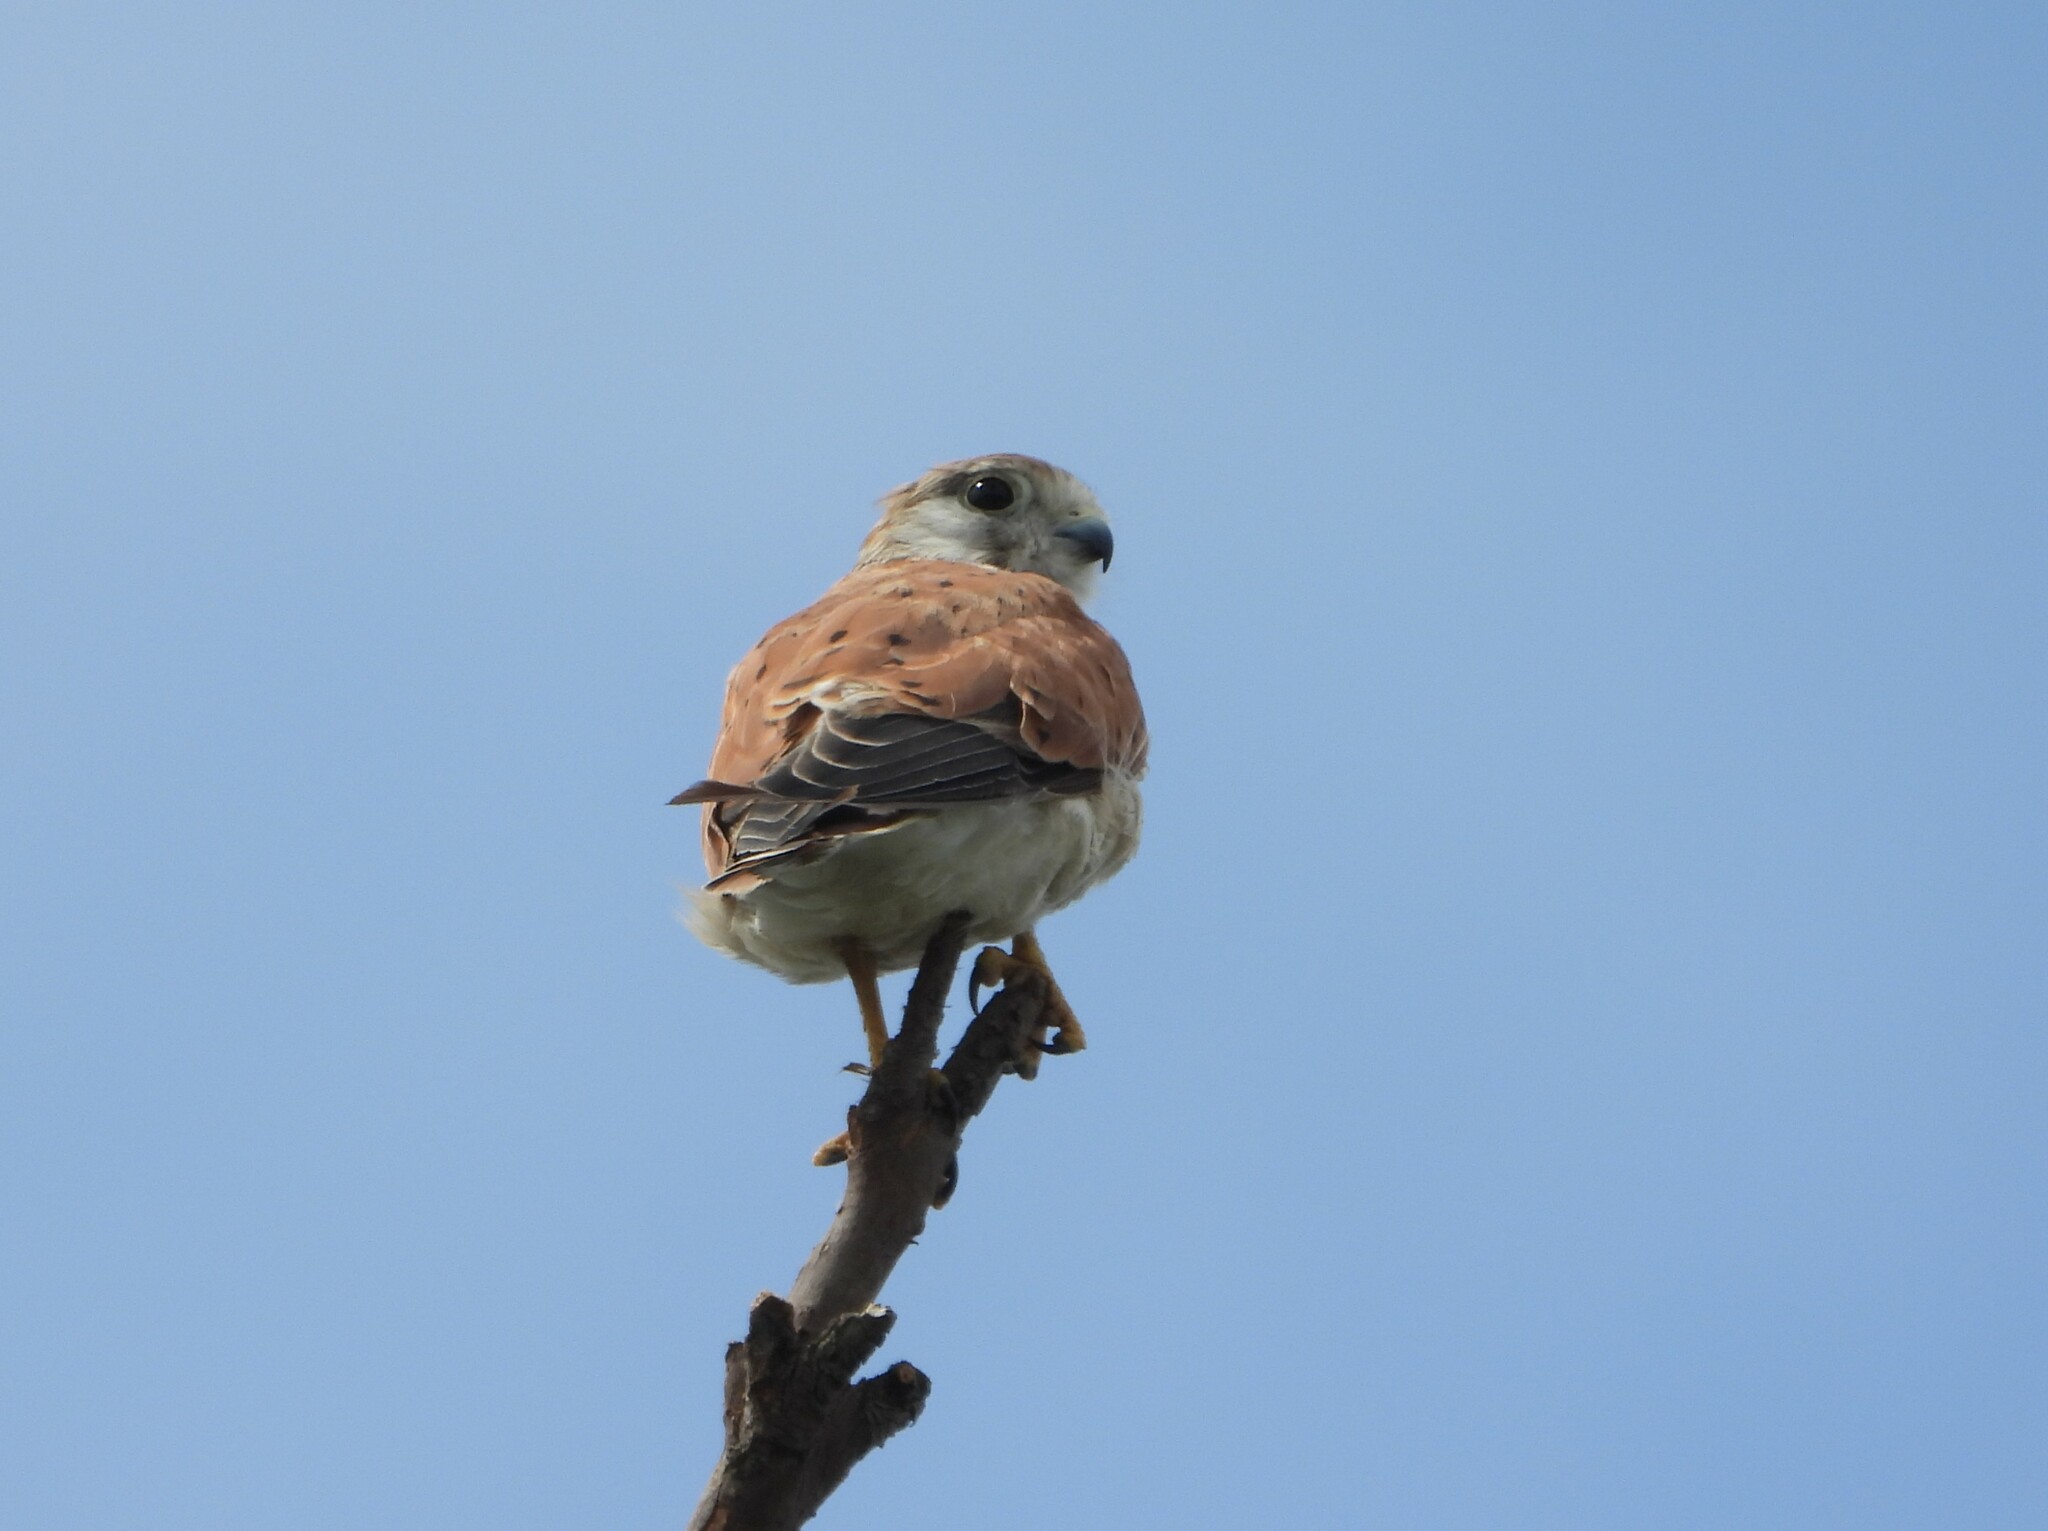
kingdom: Animalia
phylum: Chordata
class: Aves
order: Falconiformes
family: Falconidae
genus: Falco
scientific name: Falco cenchroides
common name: Nankeen kestrel
